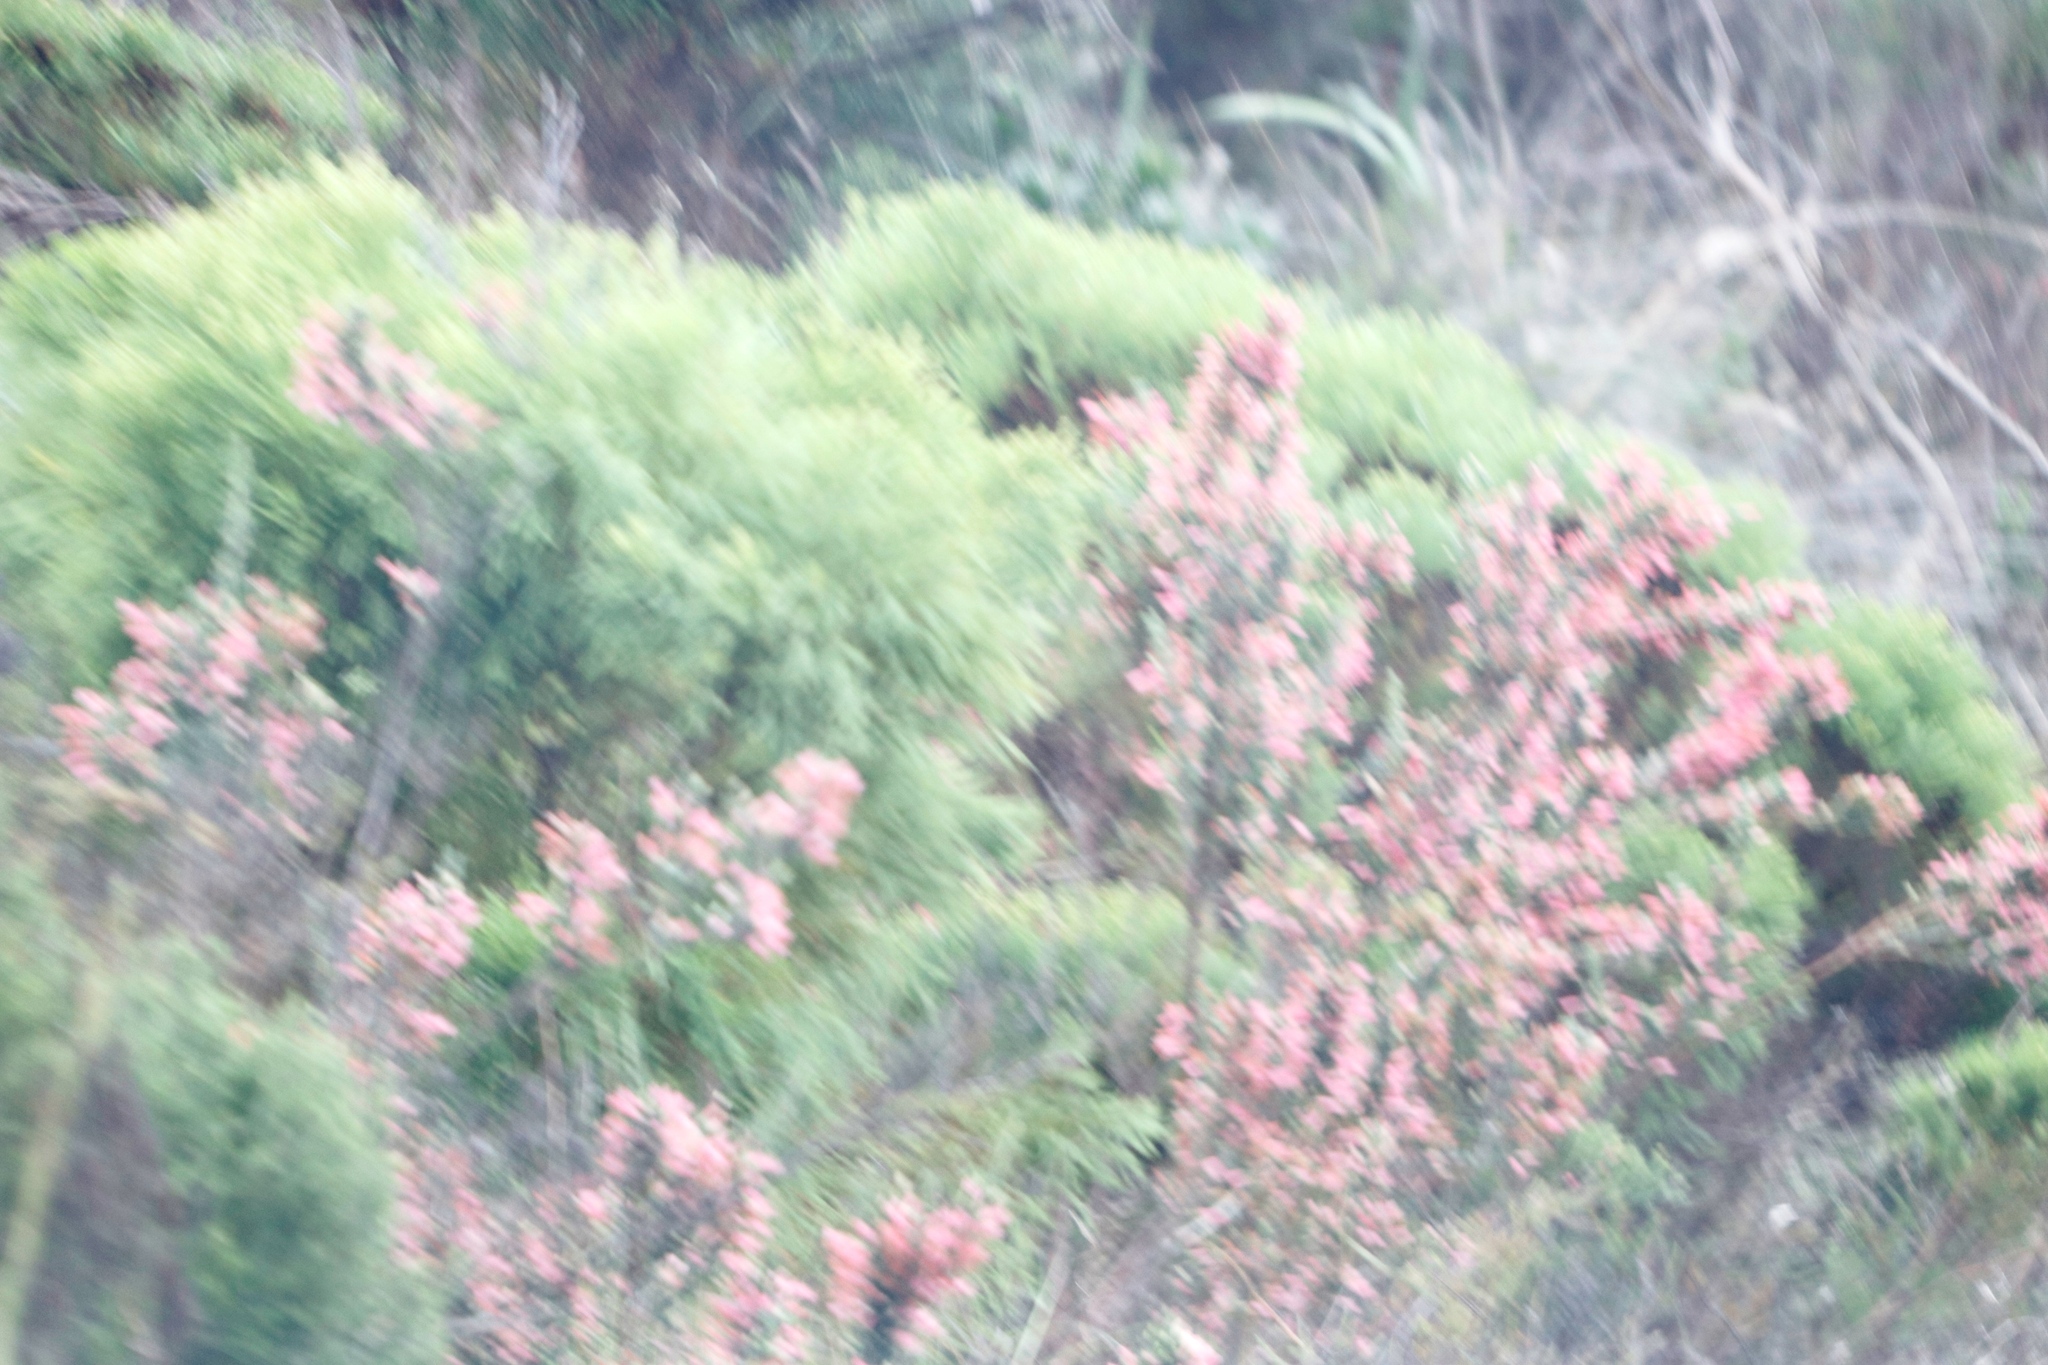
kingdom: Plantae
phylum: Tracheophyta
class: Magnoliopsida
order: Ericales
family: Ericaceae
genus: Erica
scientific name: Erica viscaria
